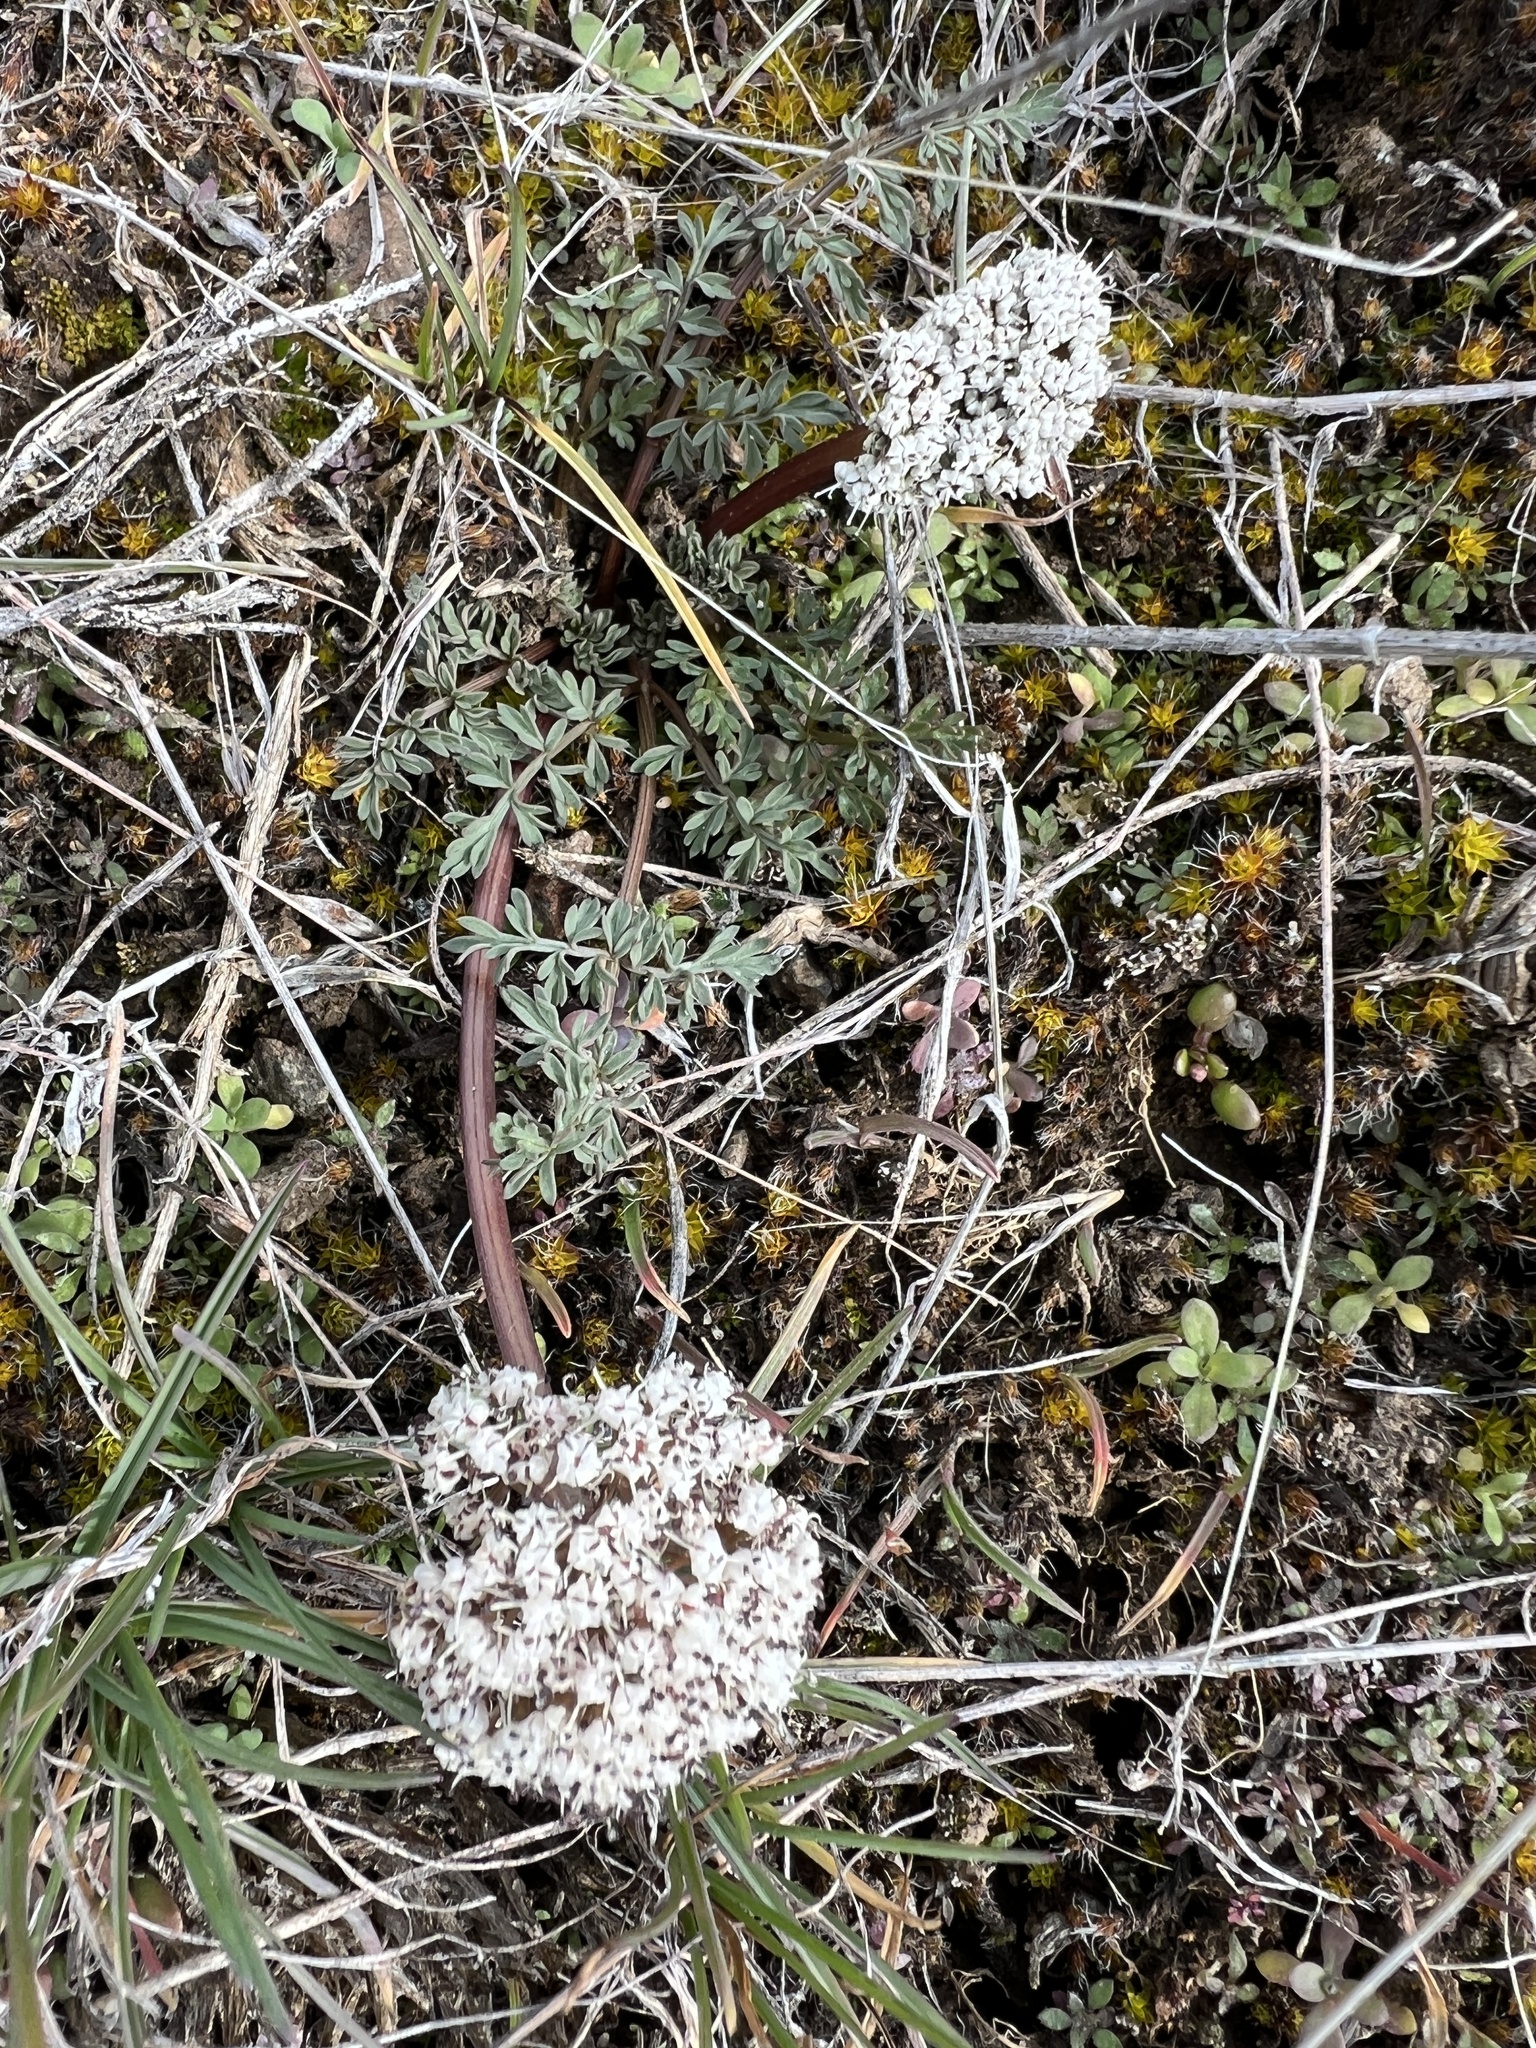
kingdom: Plantae
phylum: Tracheophyta
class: Magnoliopsida
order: Apiales
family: Apiaceae
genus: Lomatium
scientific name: Lomatium canbyi
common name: Chucklusa
